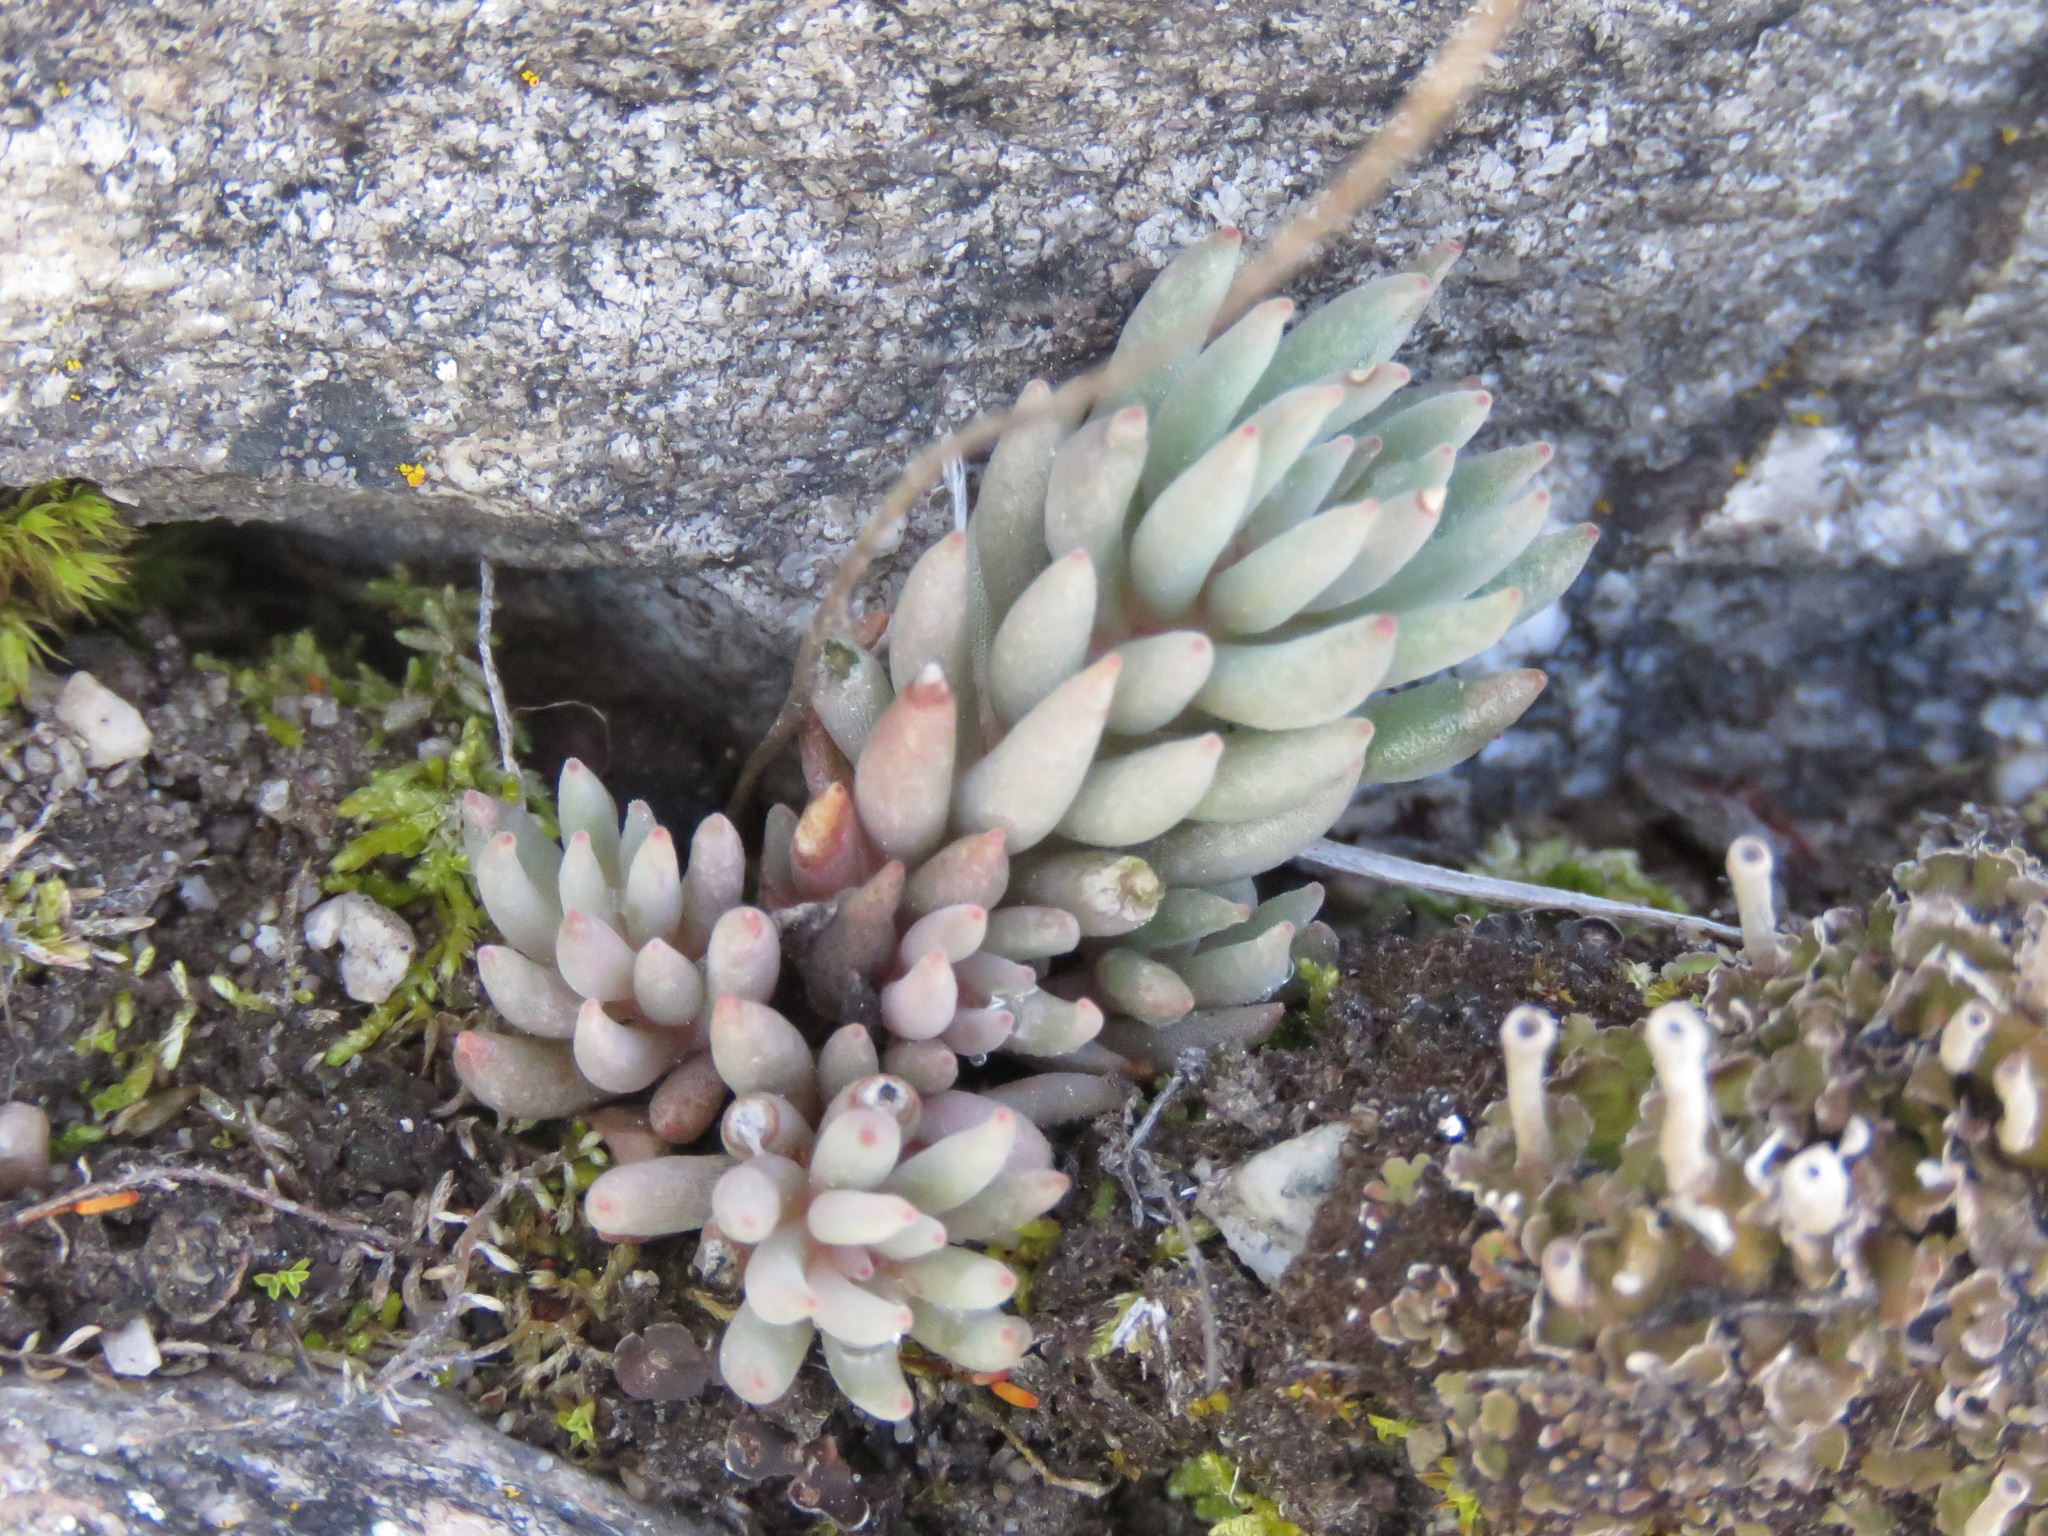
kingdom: Plantae
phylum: Tracheophyta
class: Magnoliopsida
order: Saxifragales
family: Crassulaceae
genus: Sedum
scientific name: Sedum lanceolatum
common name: Common stonecrop
